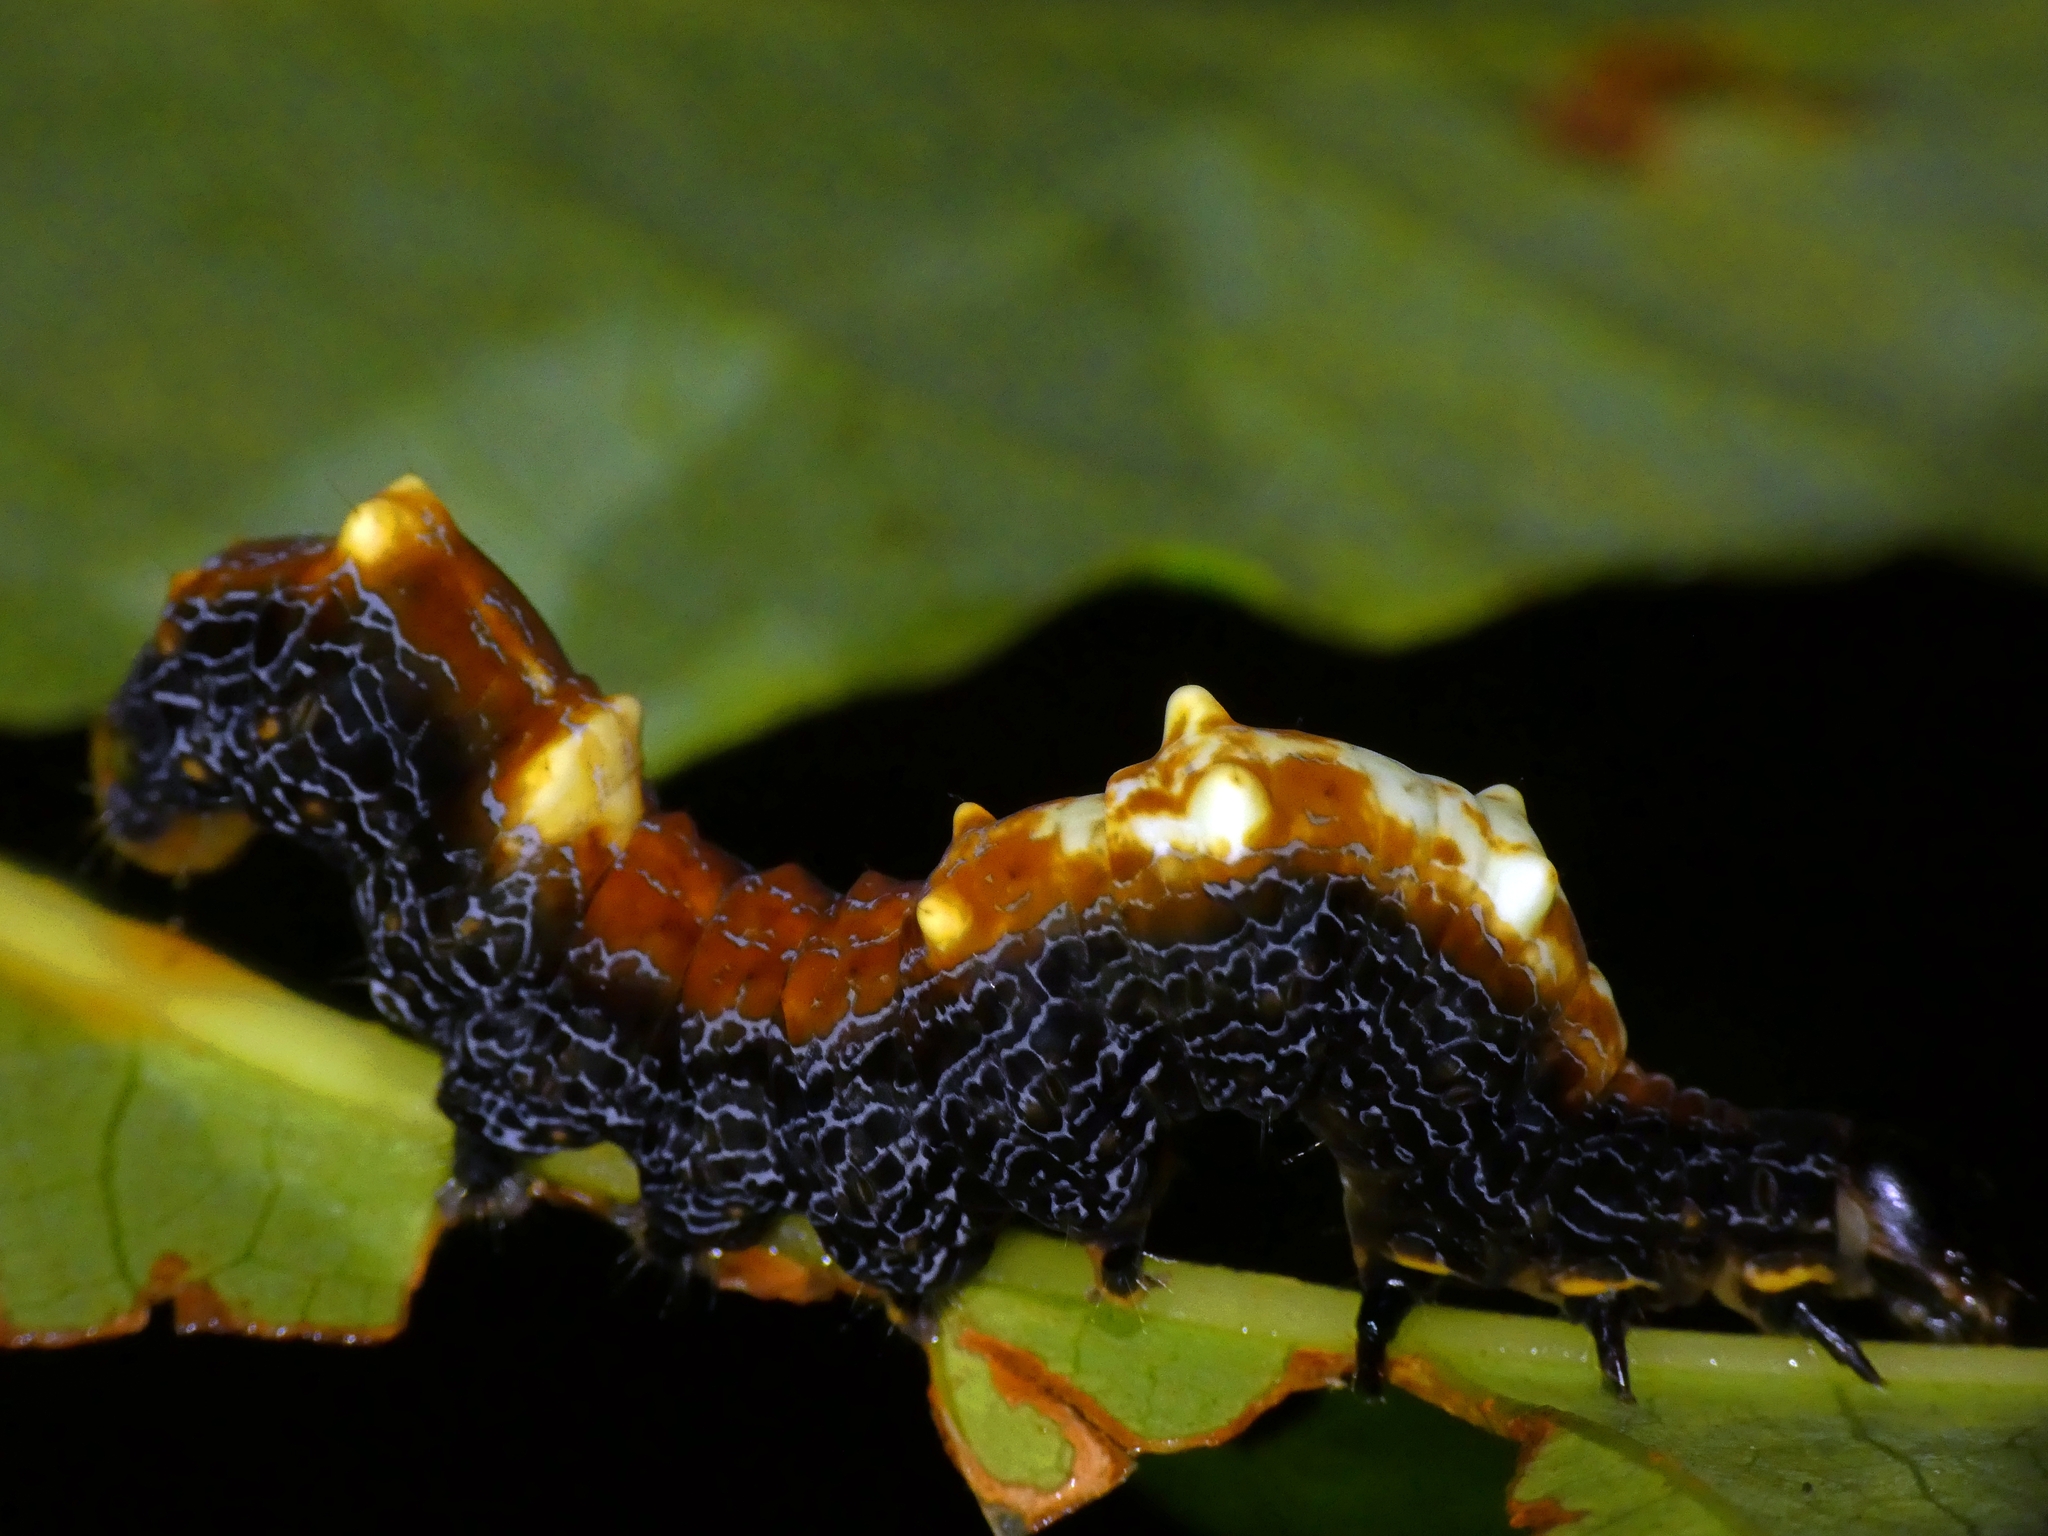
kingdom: Animalia
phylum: Arthropoda
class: Insecta
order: Lepidoptera
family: Erebidae
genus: Ischyja
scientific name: Ischyja ebusa
